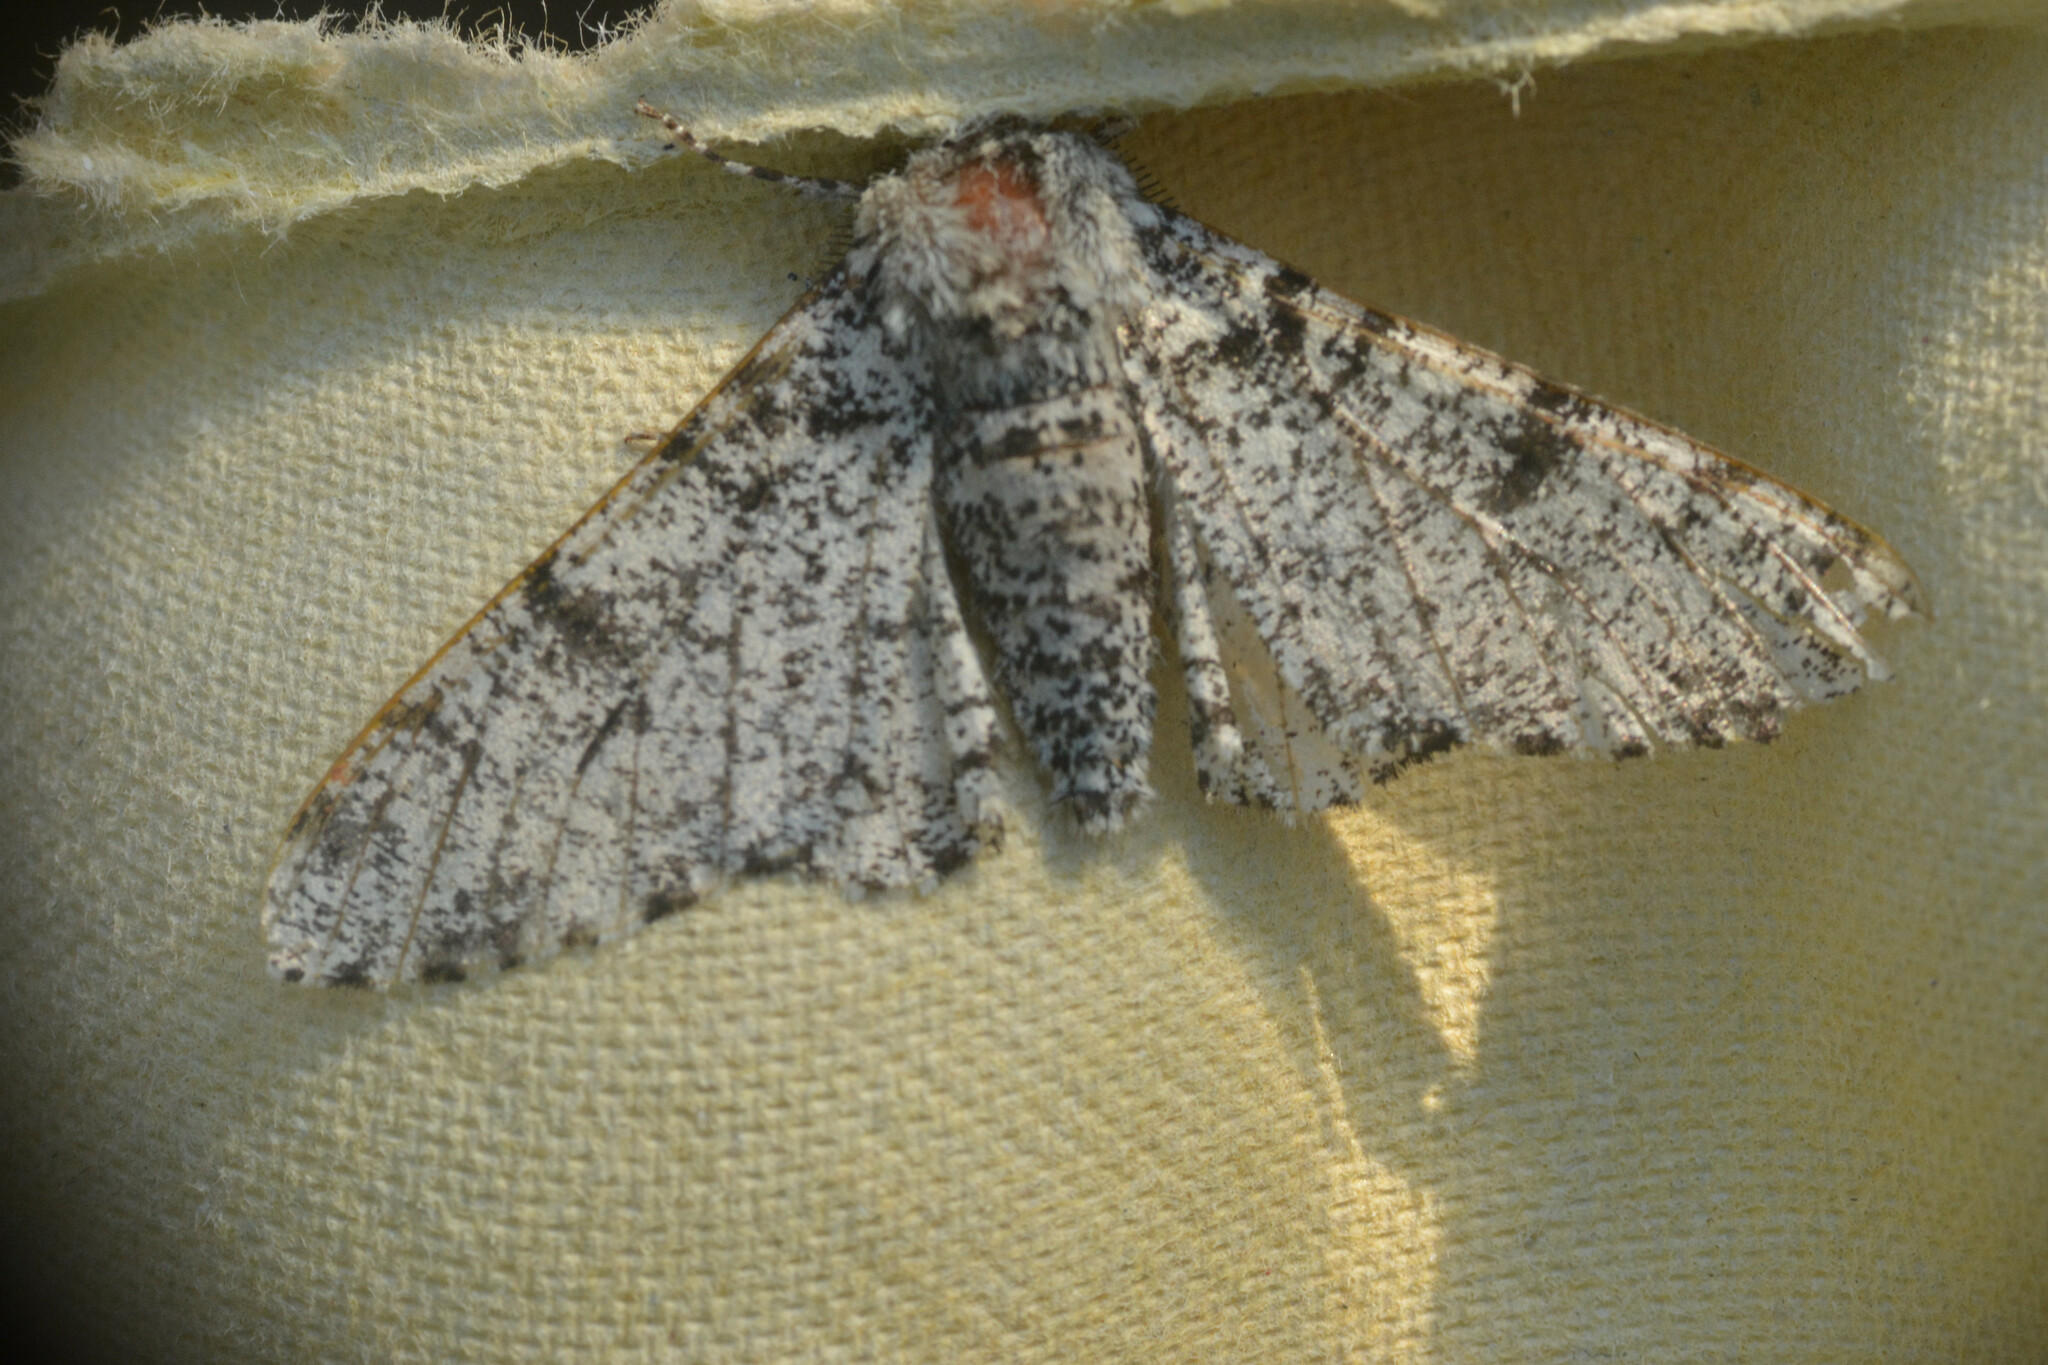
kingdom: Animalia
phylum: Arthropoda
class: Insecta
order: Lepidoptera
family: Geometridae
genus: Biston
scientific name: Biston betularia
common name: Peppered moth
